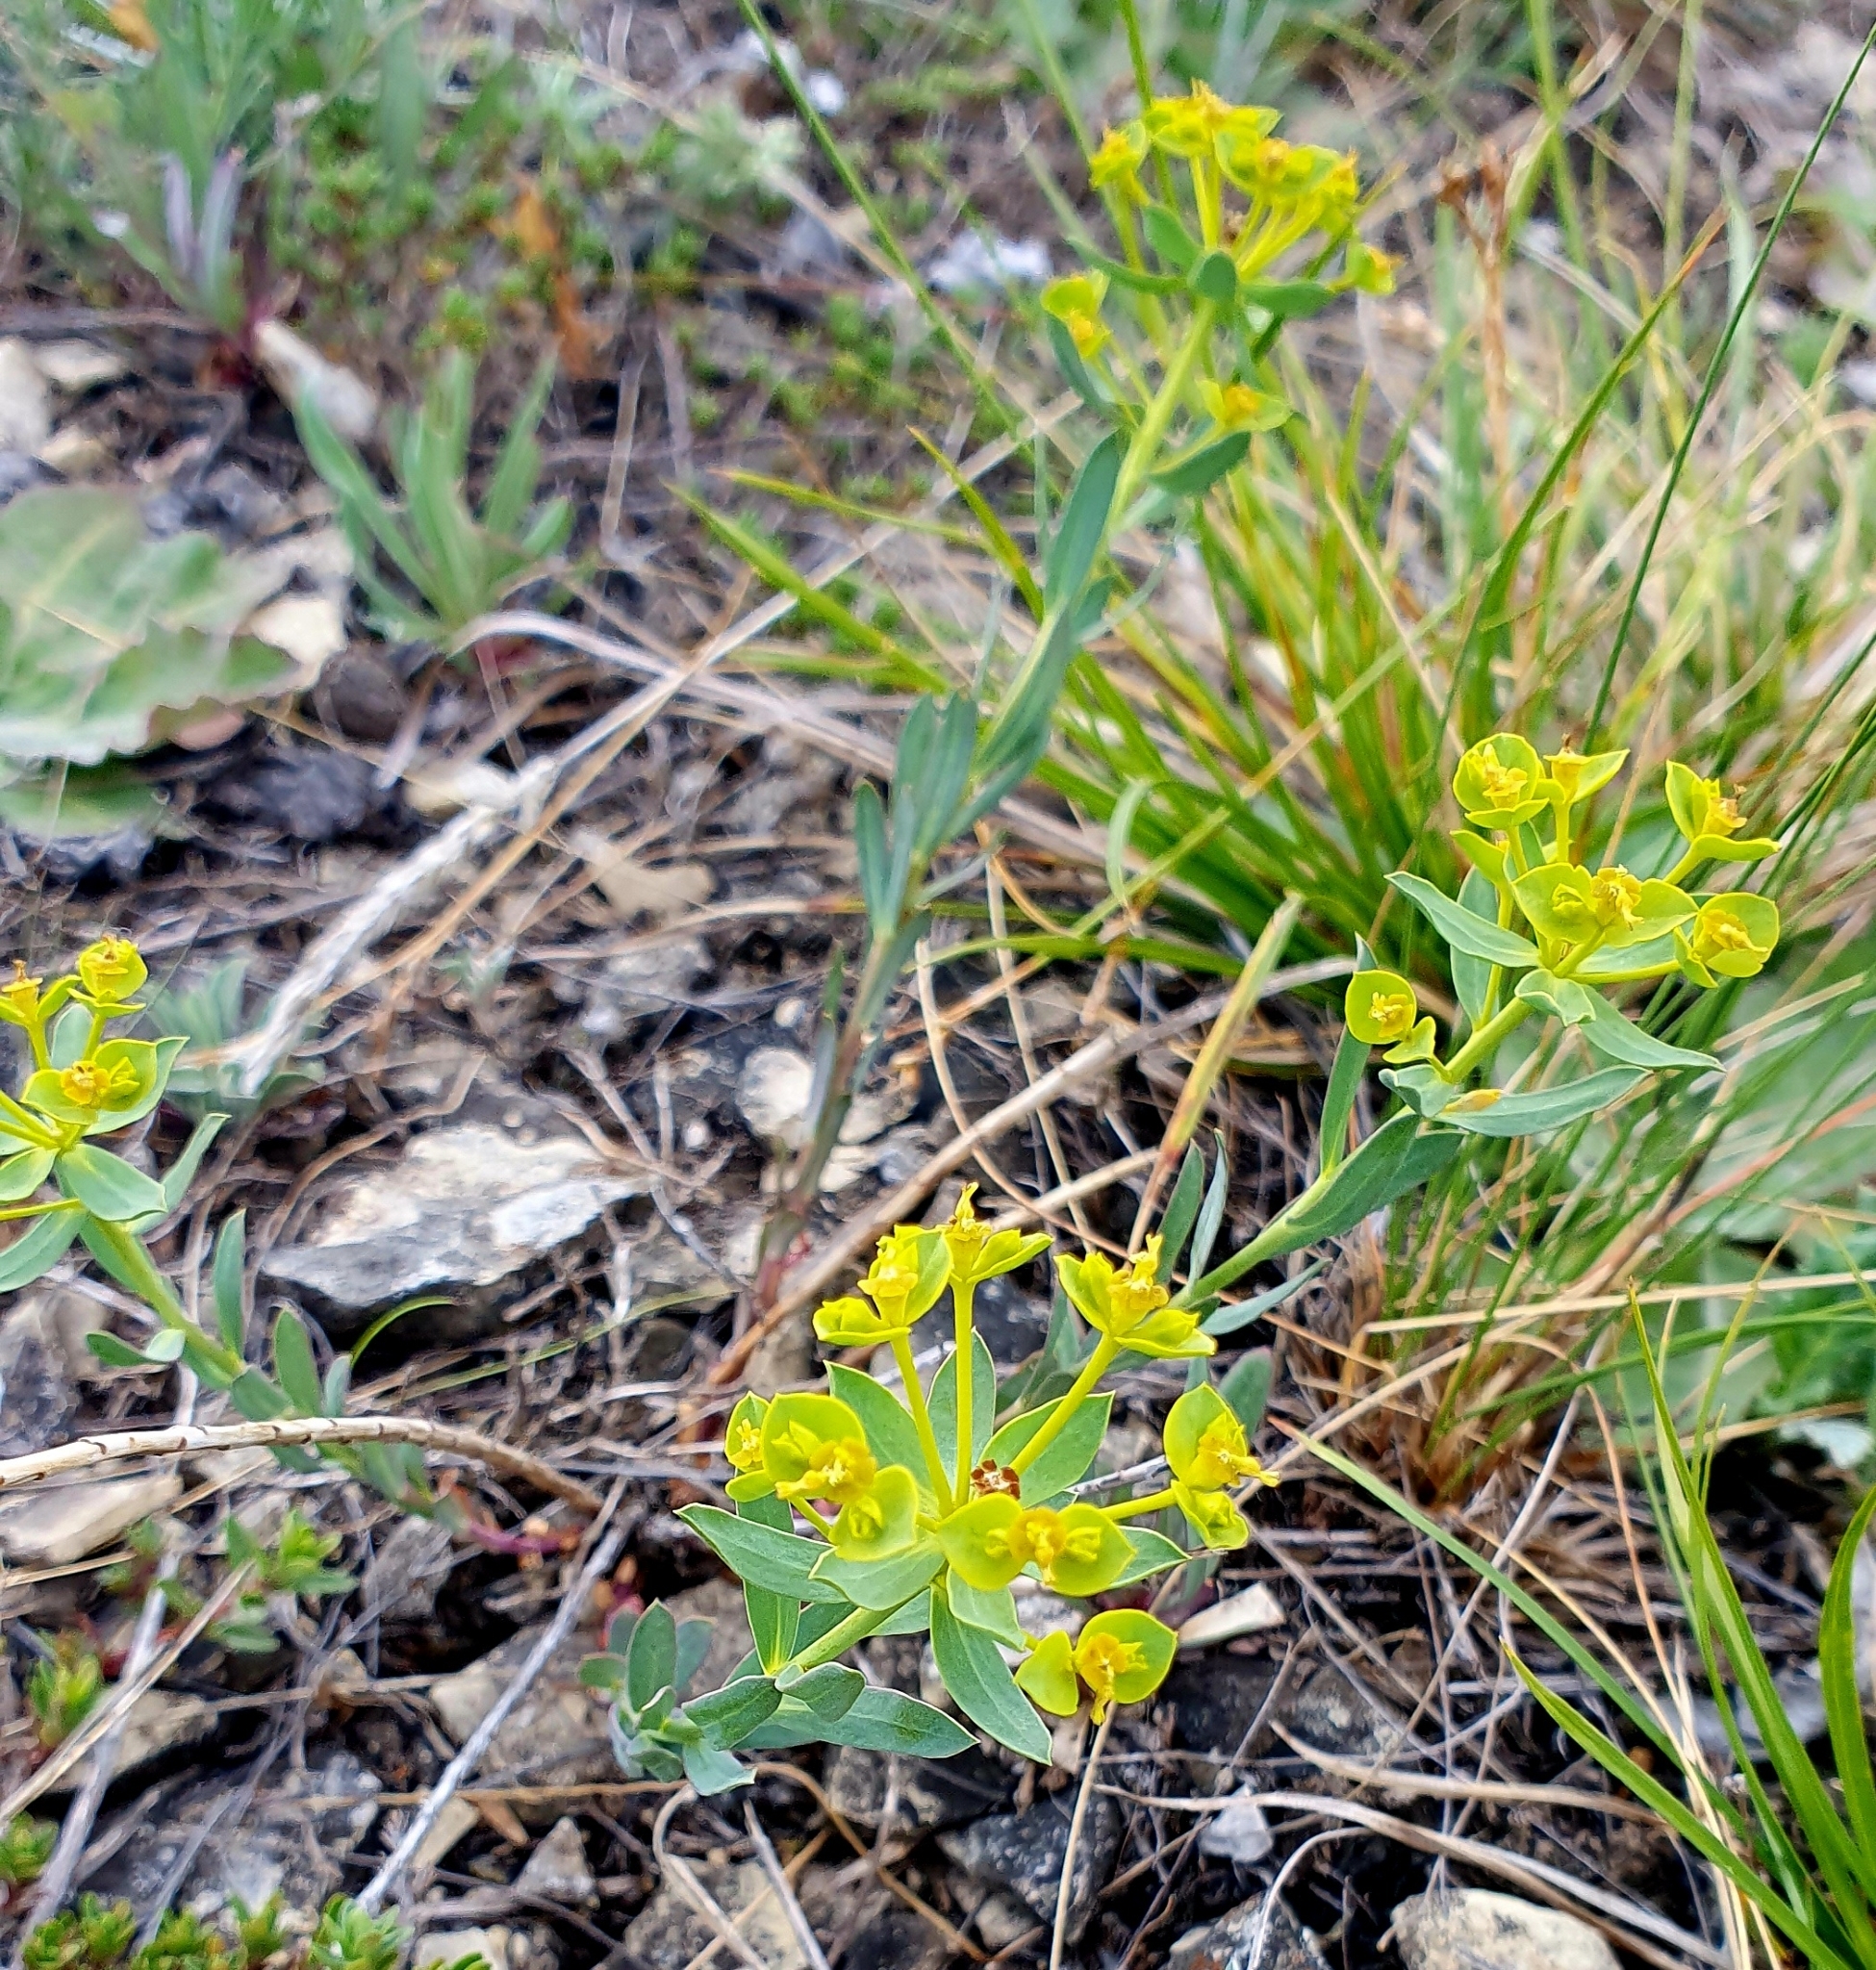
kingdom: Plantae
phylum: Tracheophyta
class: Magnoliopsida
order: Malpighiales
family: Euphorbiaceae
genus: Euphorbia
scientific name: Euphorbia seguieriana
